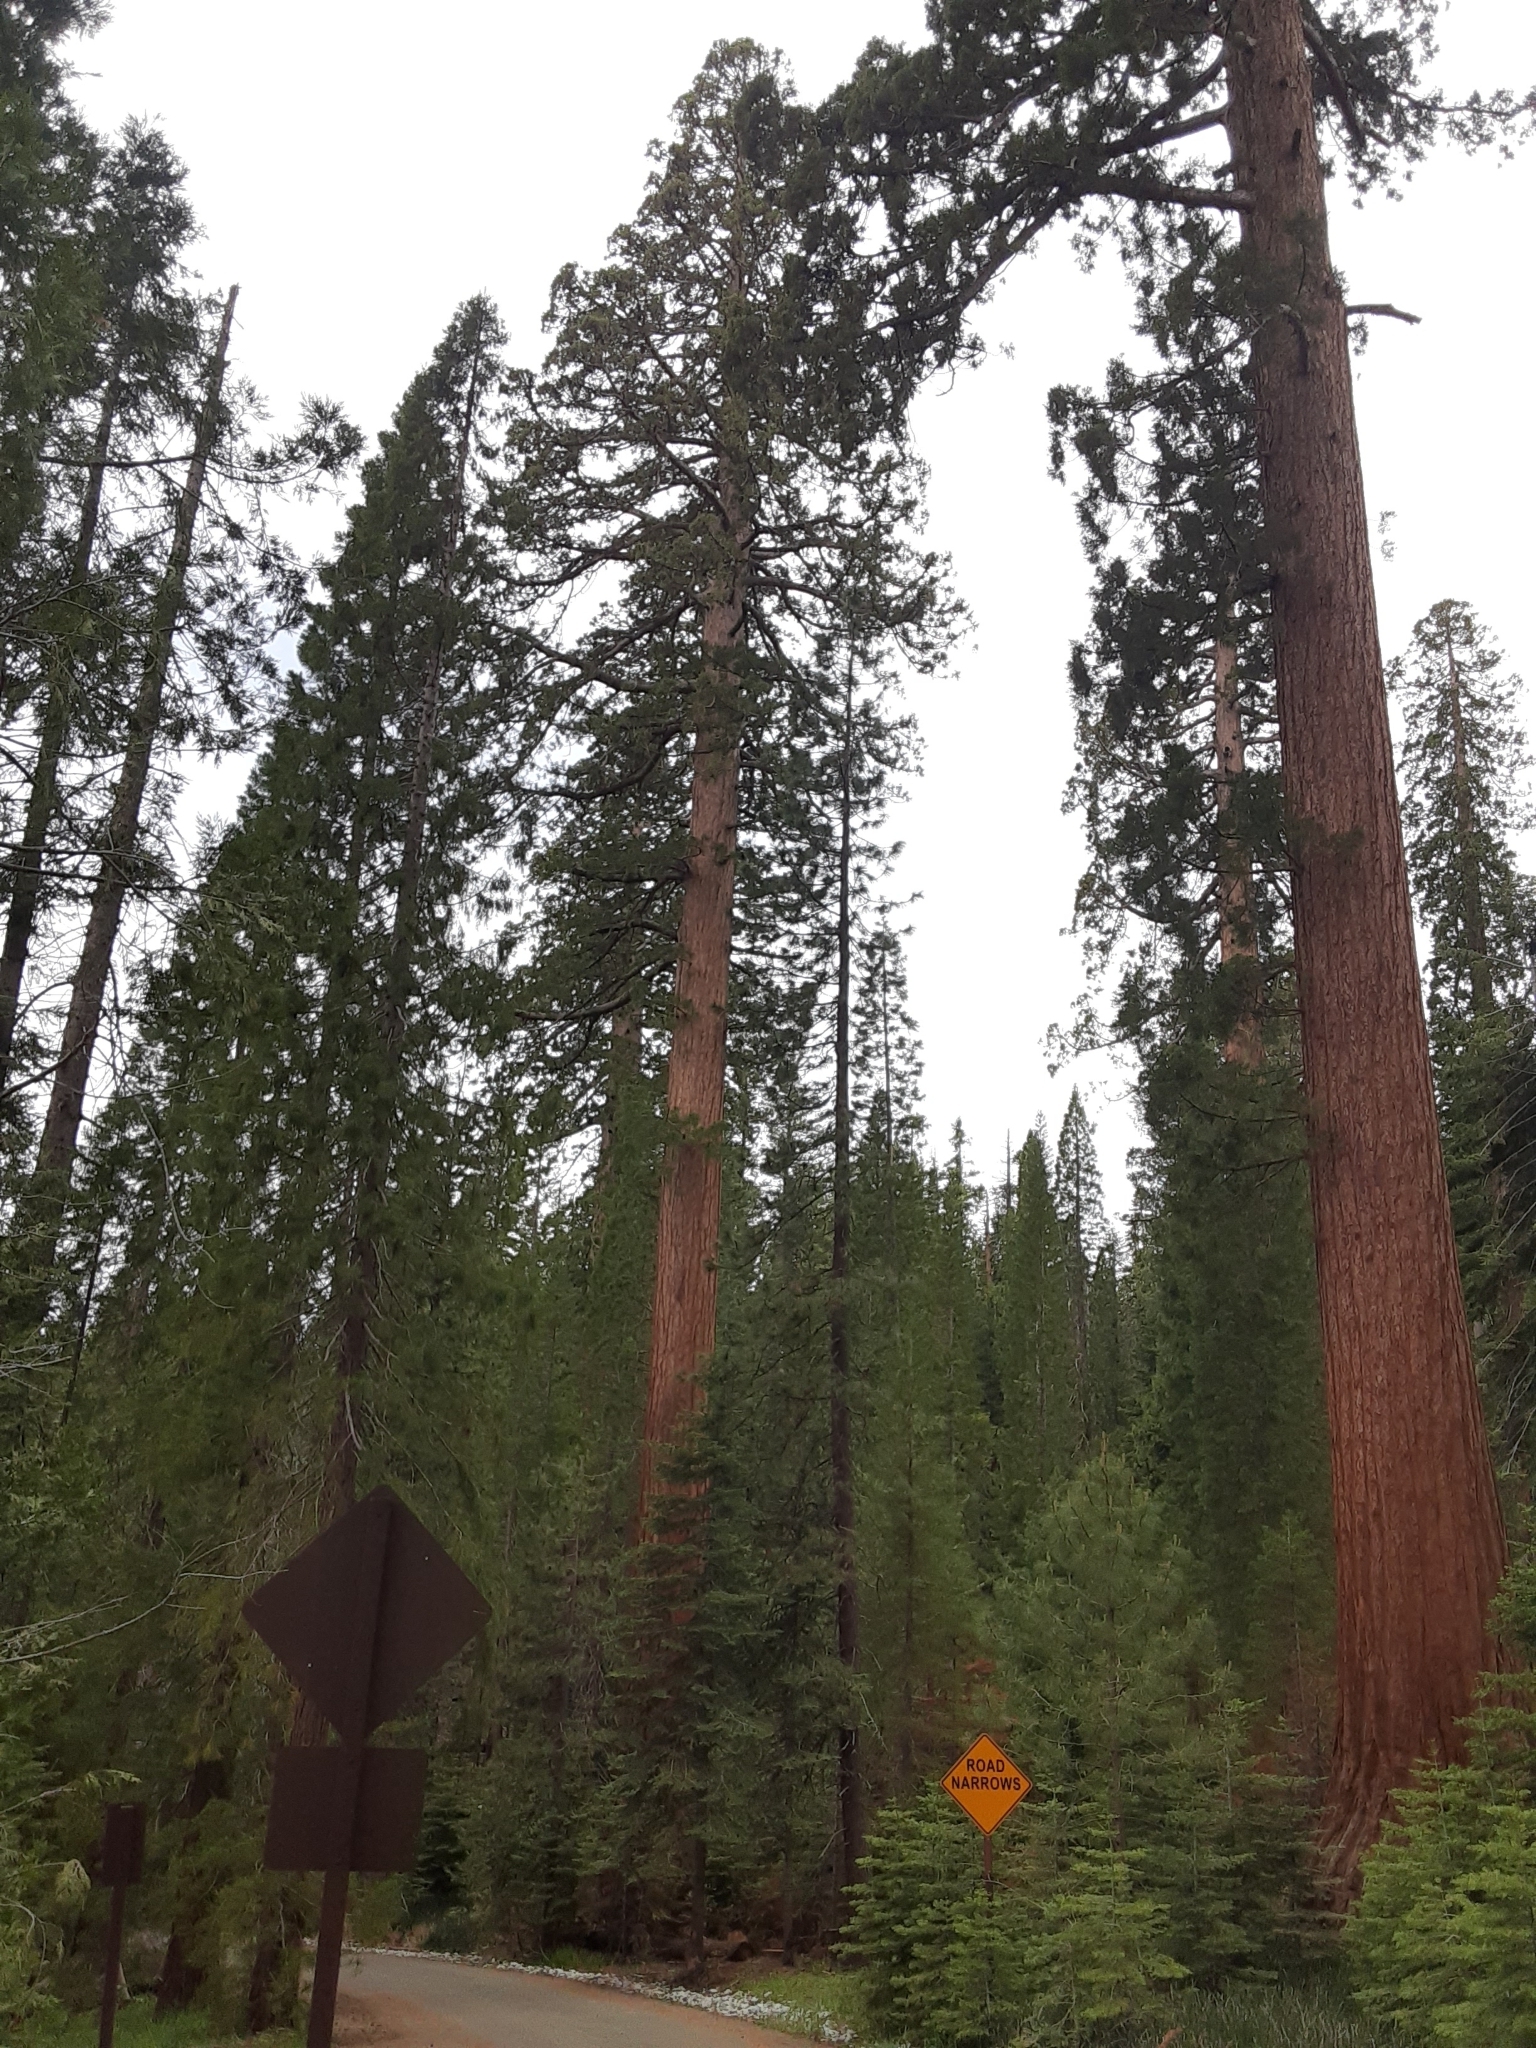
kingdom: Plantae
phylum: Tracheophyta
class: Pinopsida
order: Pinales
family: Cupressaceae
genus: Sequoiadendron
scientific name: Sequoiadendron giganteum
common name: Wellingtonia
